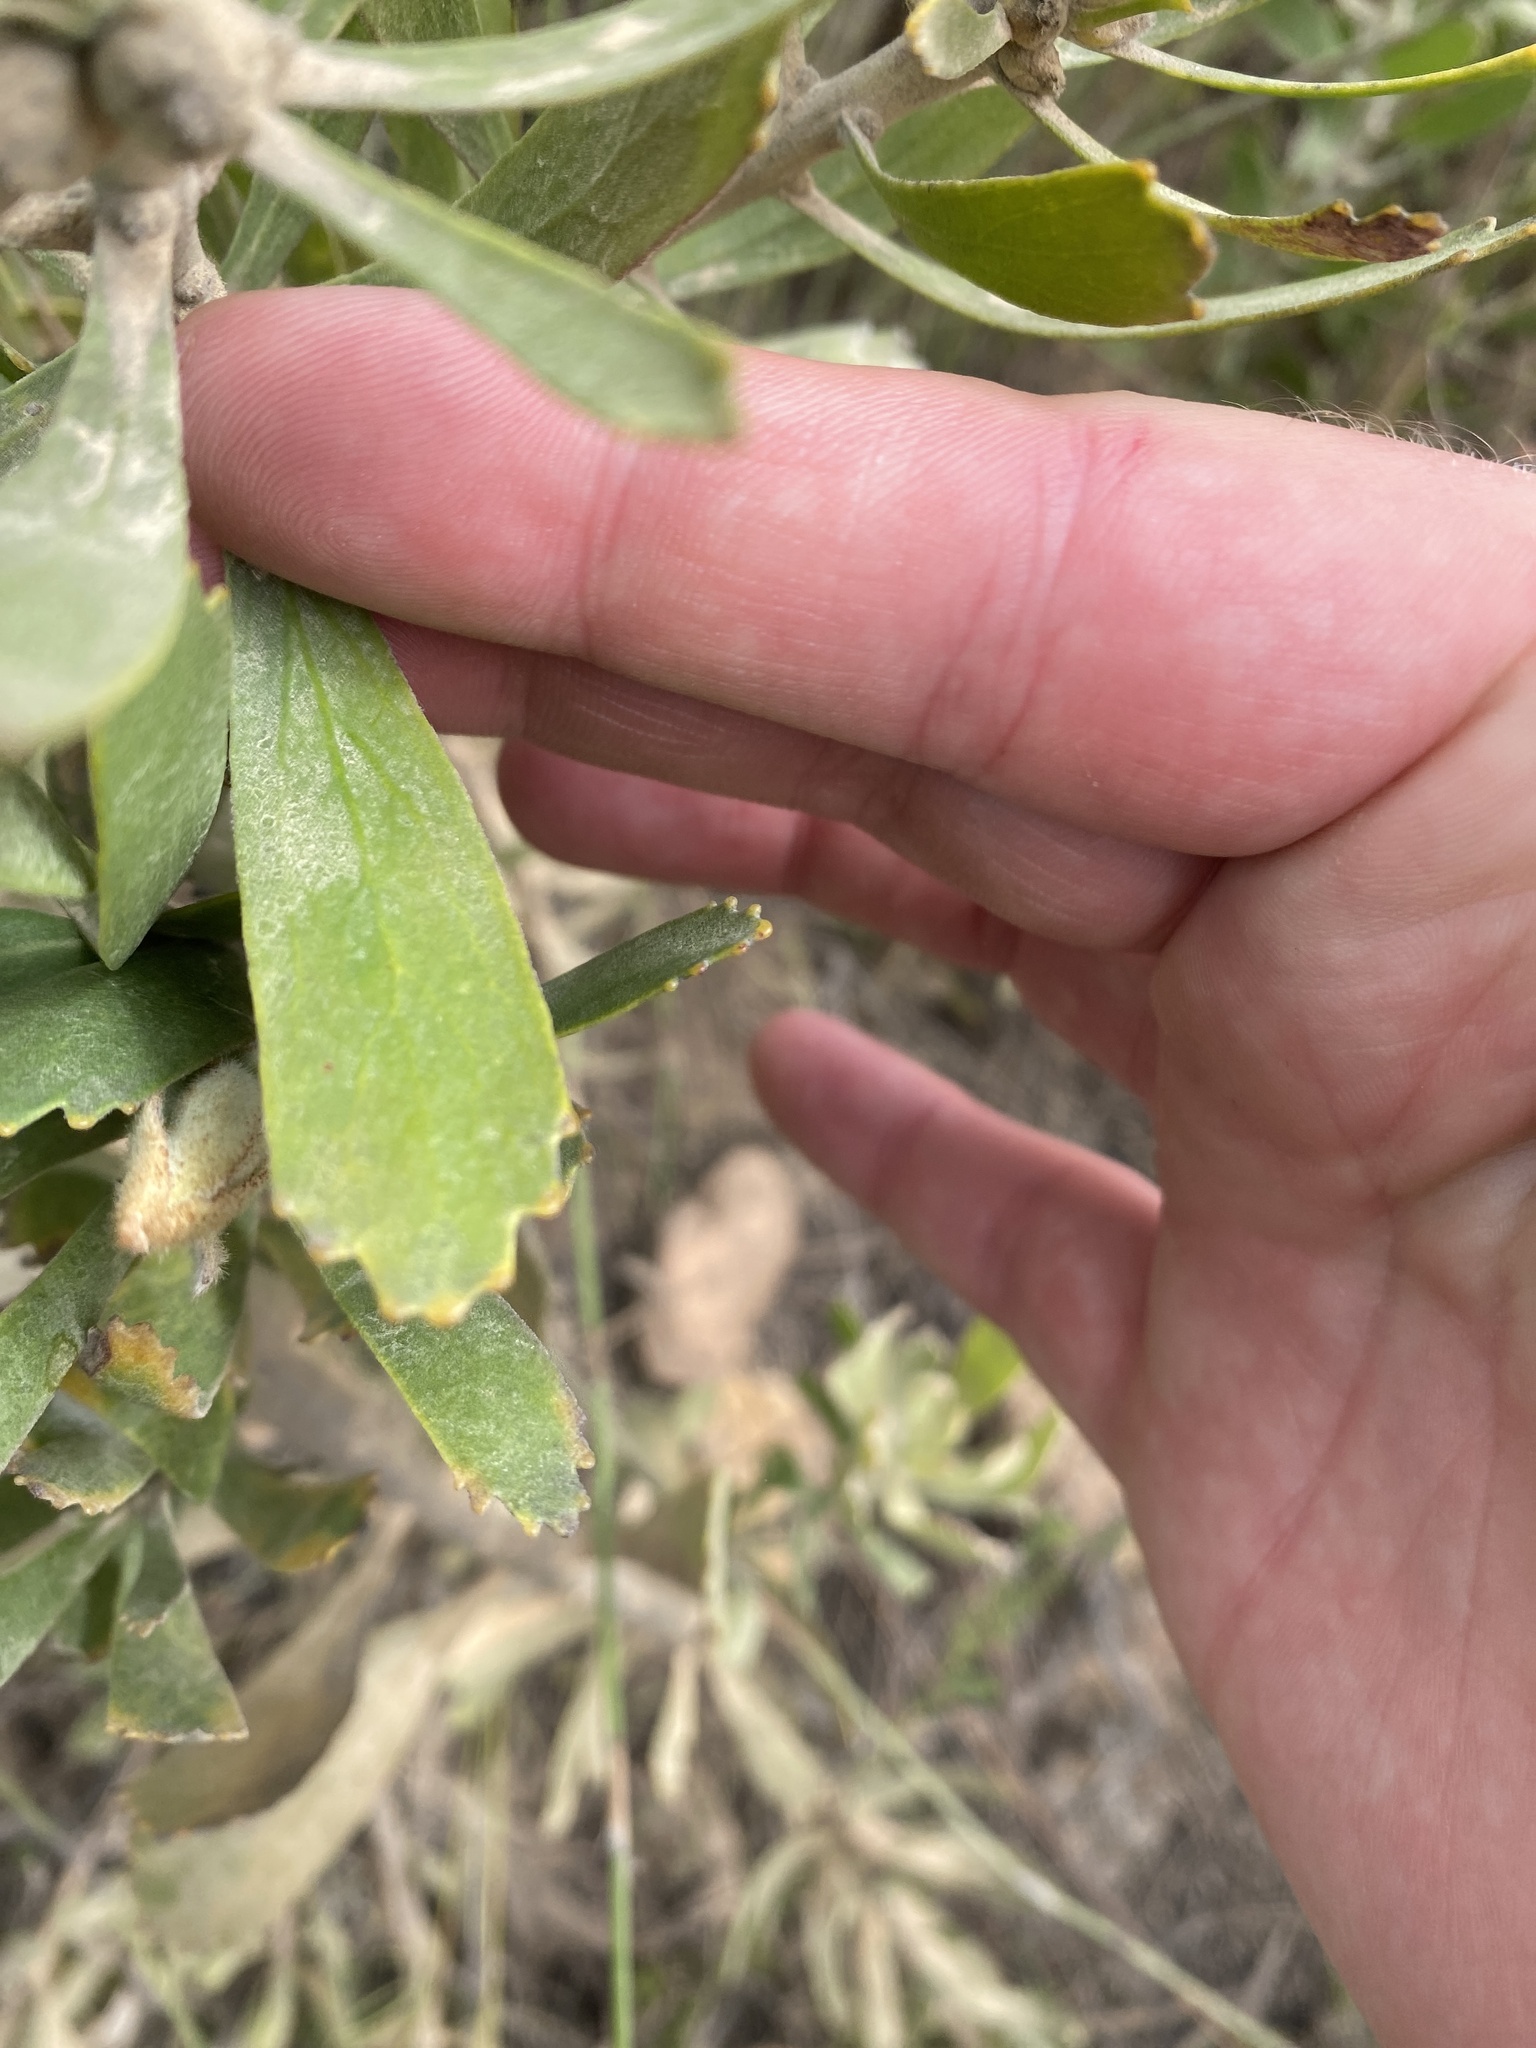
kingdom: Plantae
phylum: Tracheophyta
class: Magnoliopsida
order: Proteales
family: Proteaceae
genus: Leucospermum
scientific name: Leucospermum cuneiforme
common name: Common pincushion
